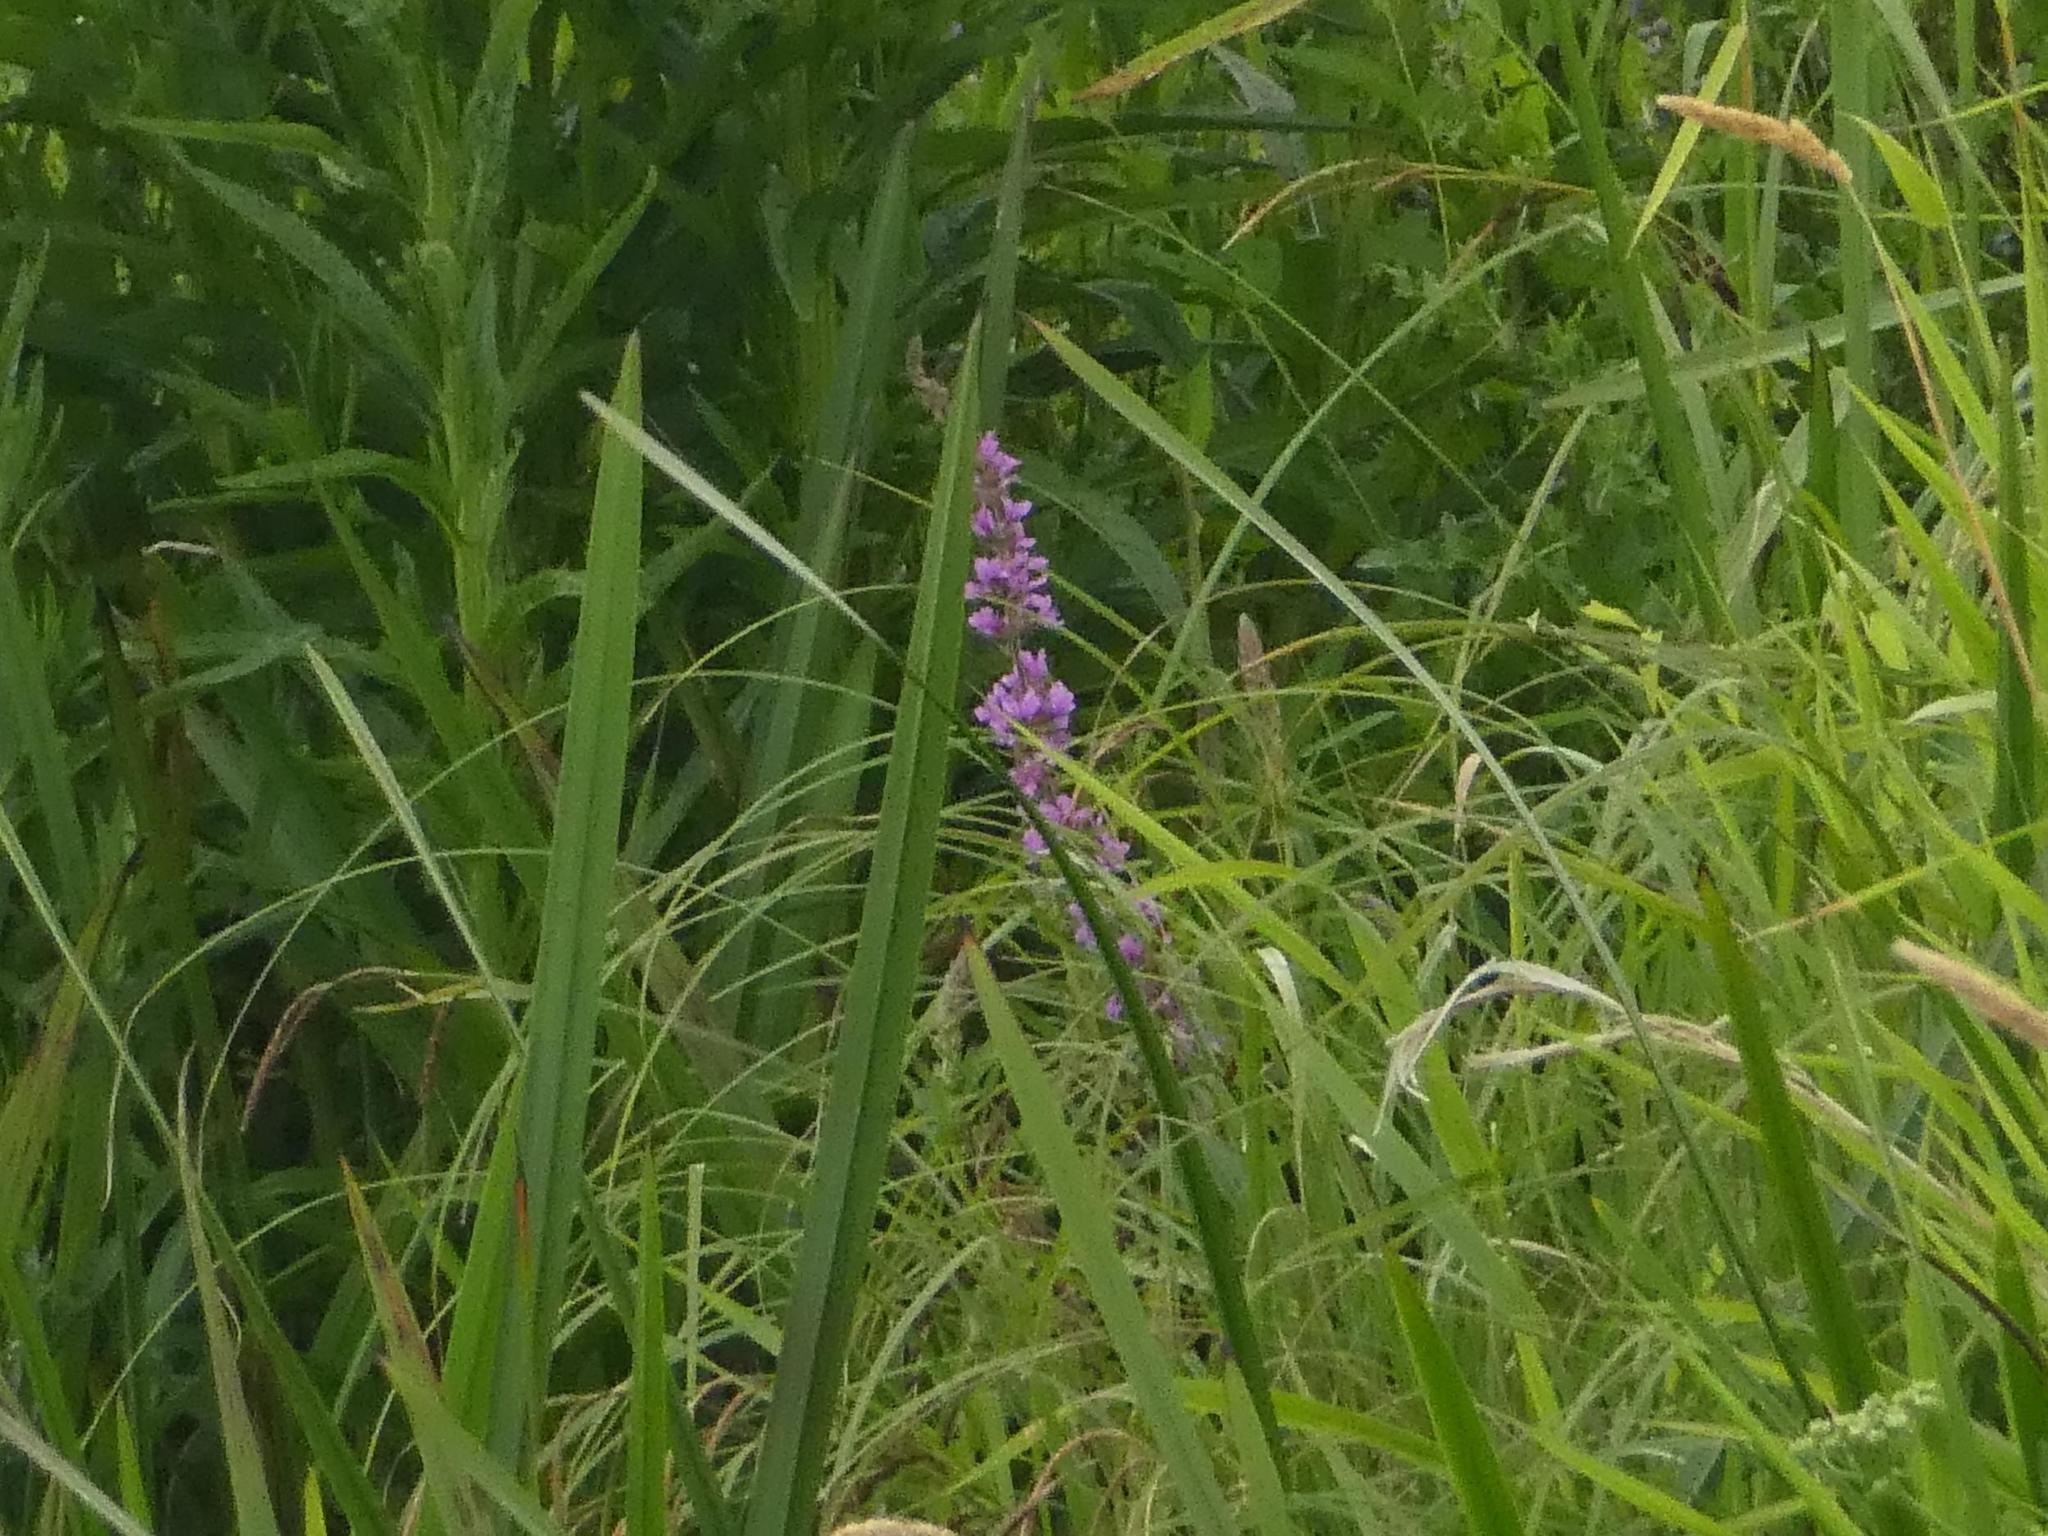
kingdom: Plantae
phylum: Tracheophyta
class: Magnoliopsida
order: Myrtales
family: Lythraceae
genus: Lythrum
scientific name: Lythrum salicaria
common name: Purple loosestrife
